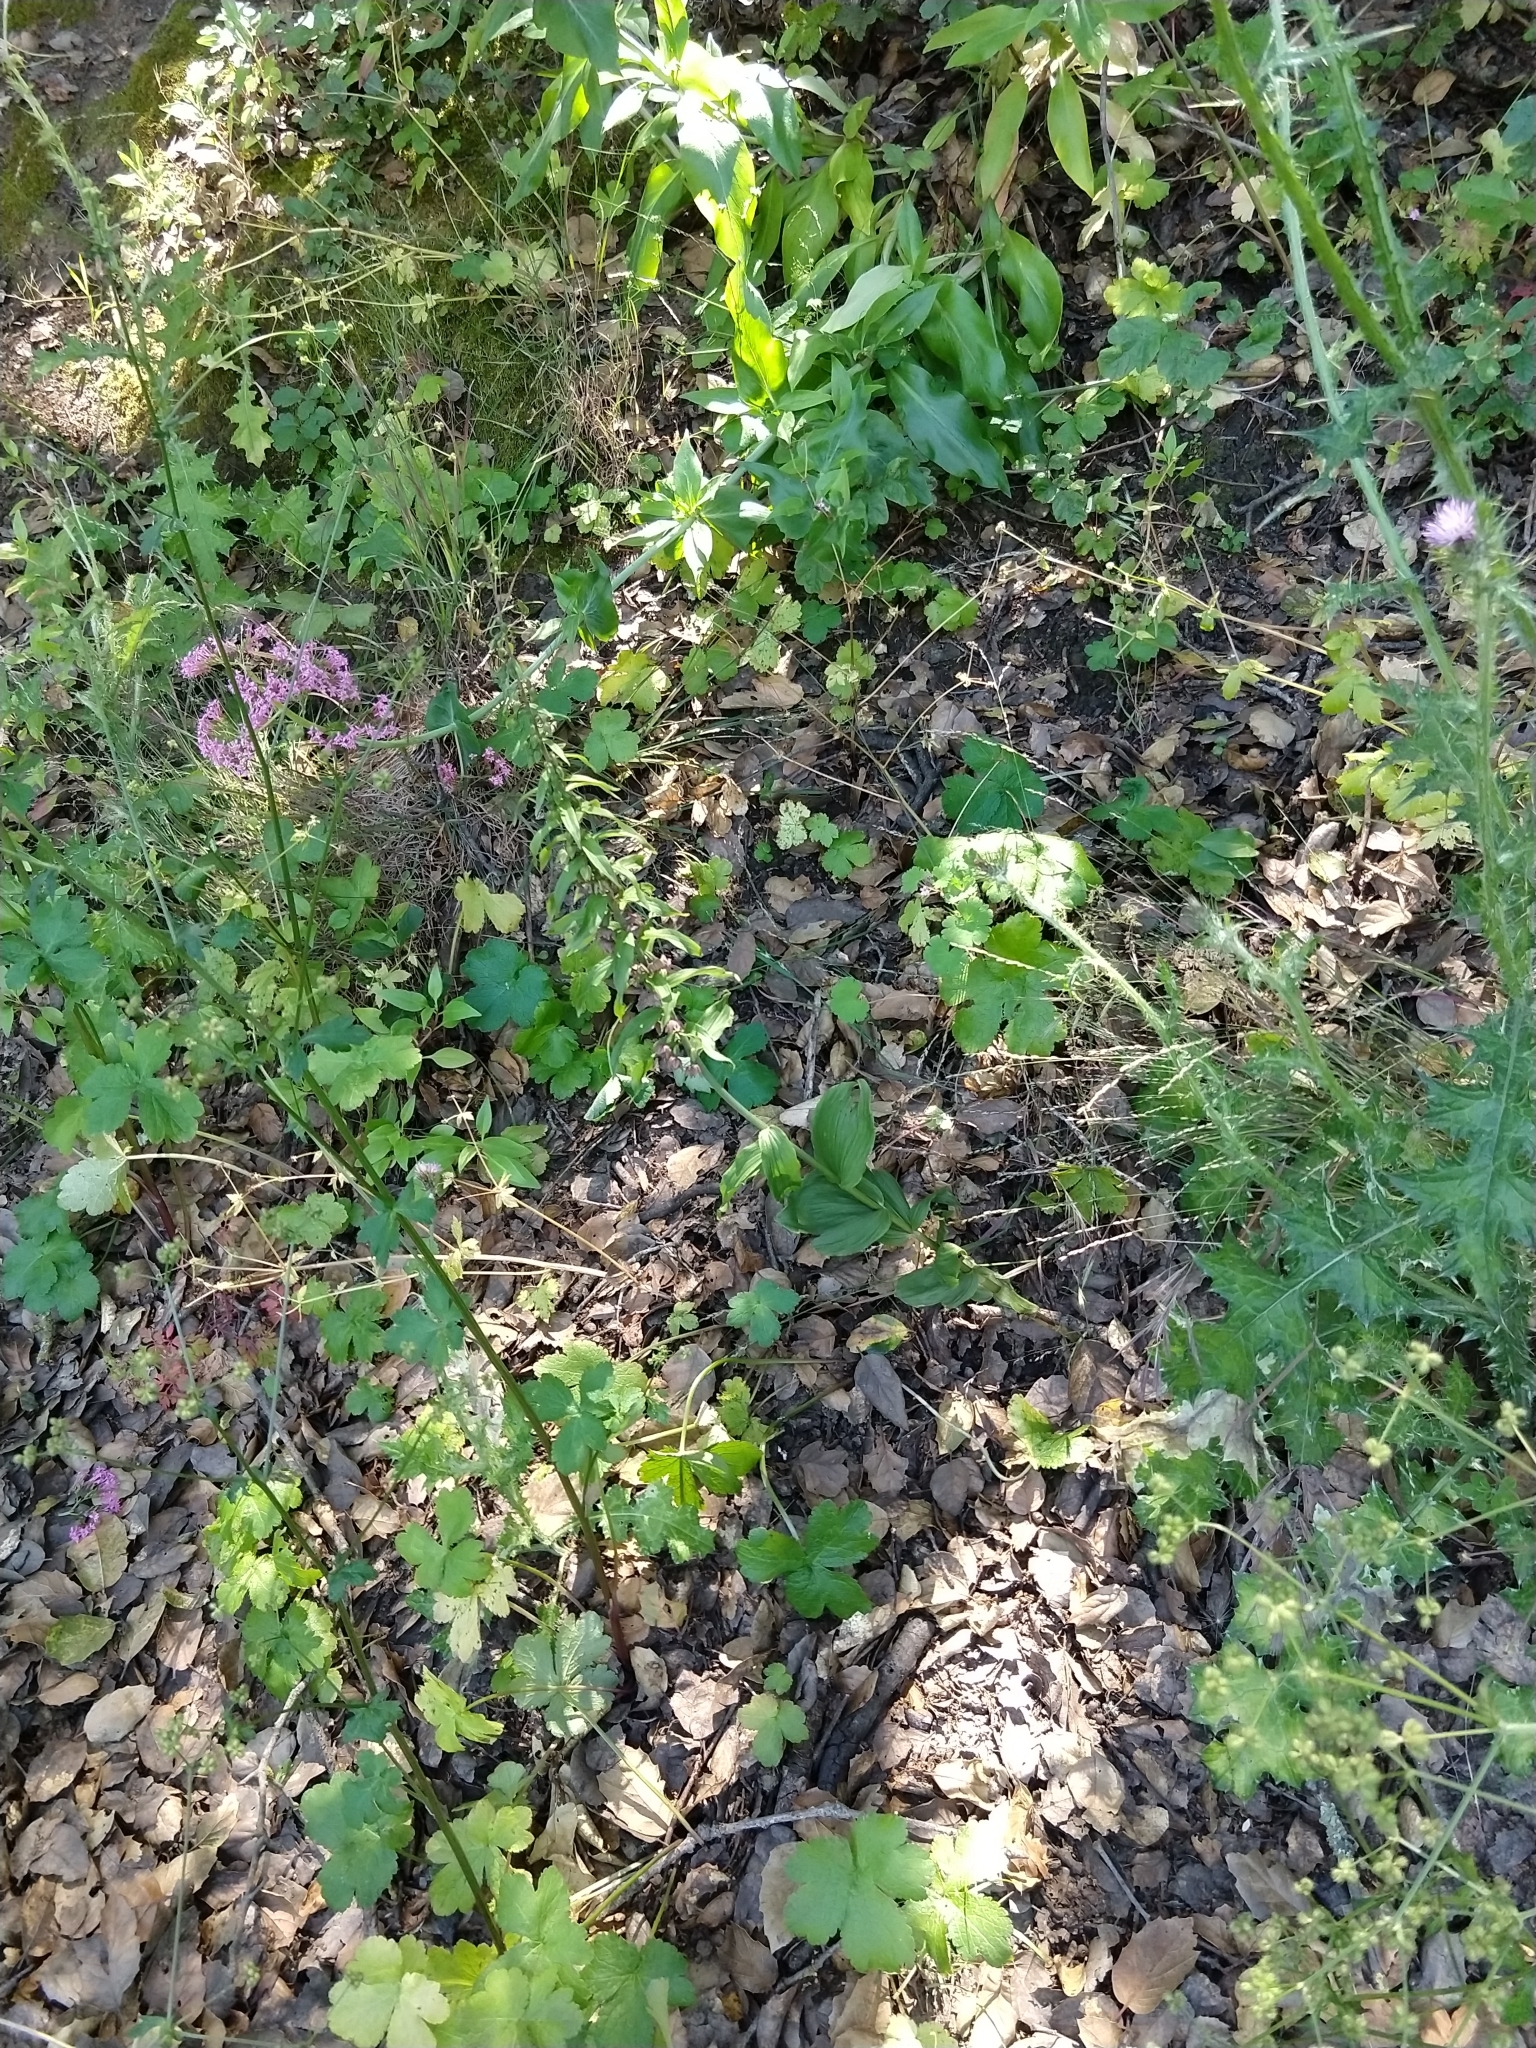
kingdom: Plantae
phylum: Tracheophyta
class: Liliopsida
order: Asparagales
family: Orchidaceae
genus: Epipactis
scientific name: Epipactis helleborine
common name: Broad-leaved helleborine
